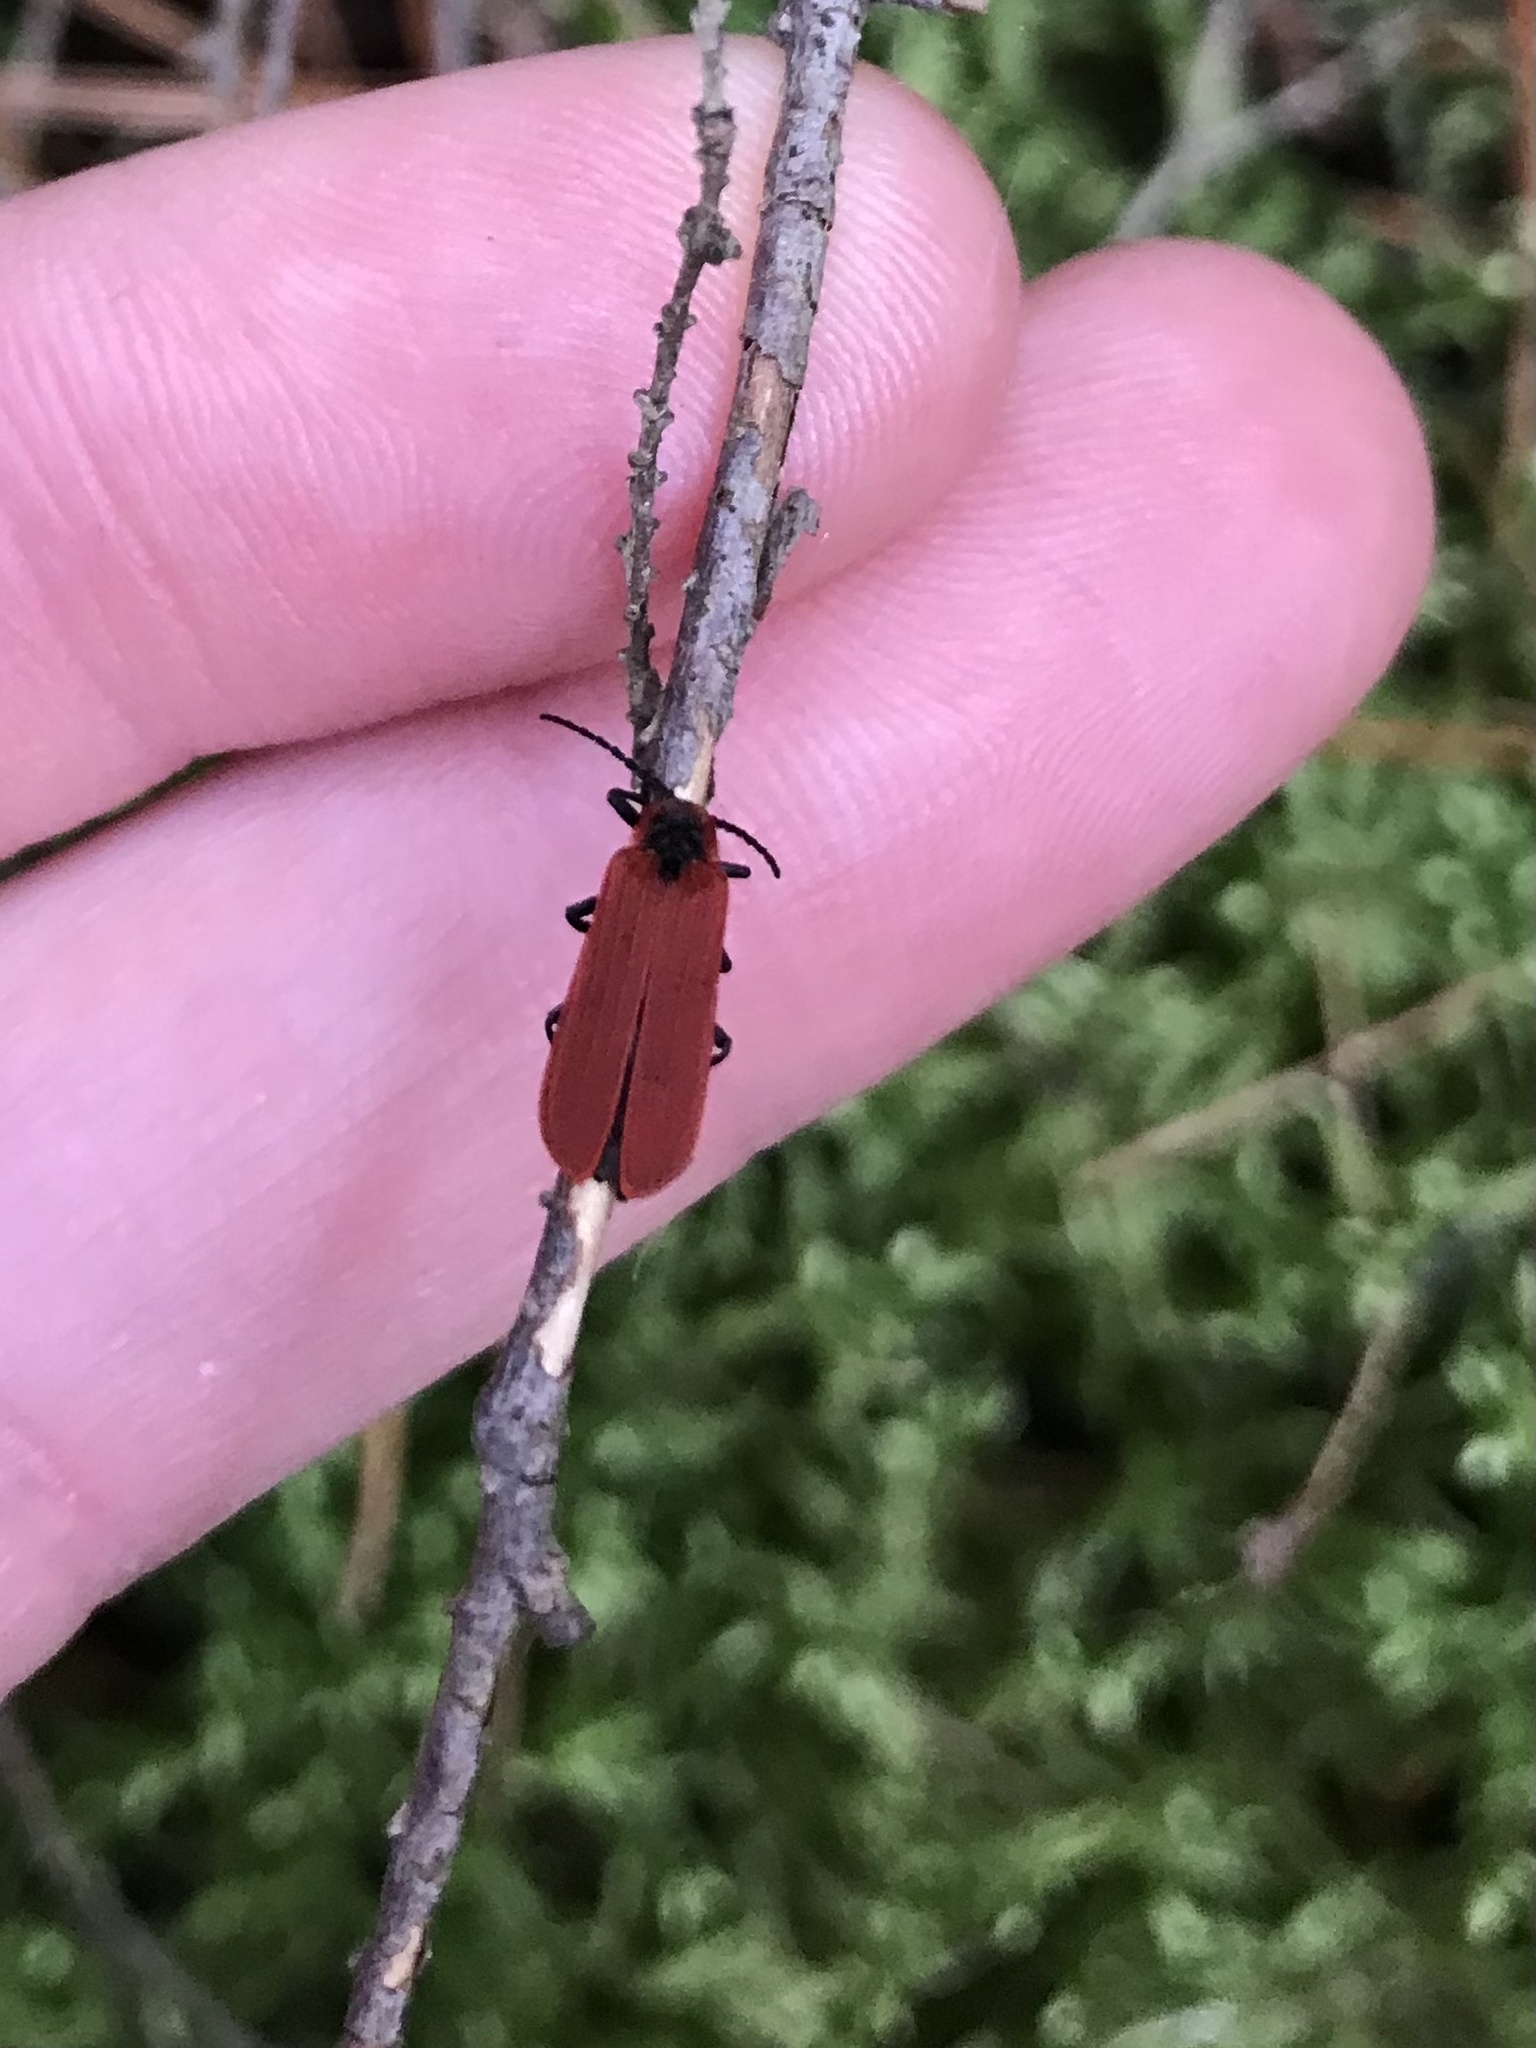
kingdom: Animalia
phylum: Arthropoda
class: Insecta
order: Coleoptera
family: Lycidae
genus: Dictyoptera
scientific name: Dictyoptera aurora
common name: Golden net-winged beetle
